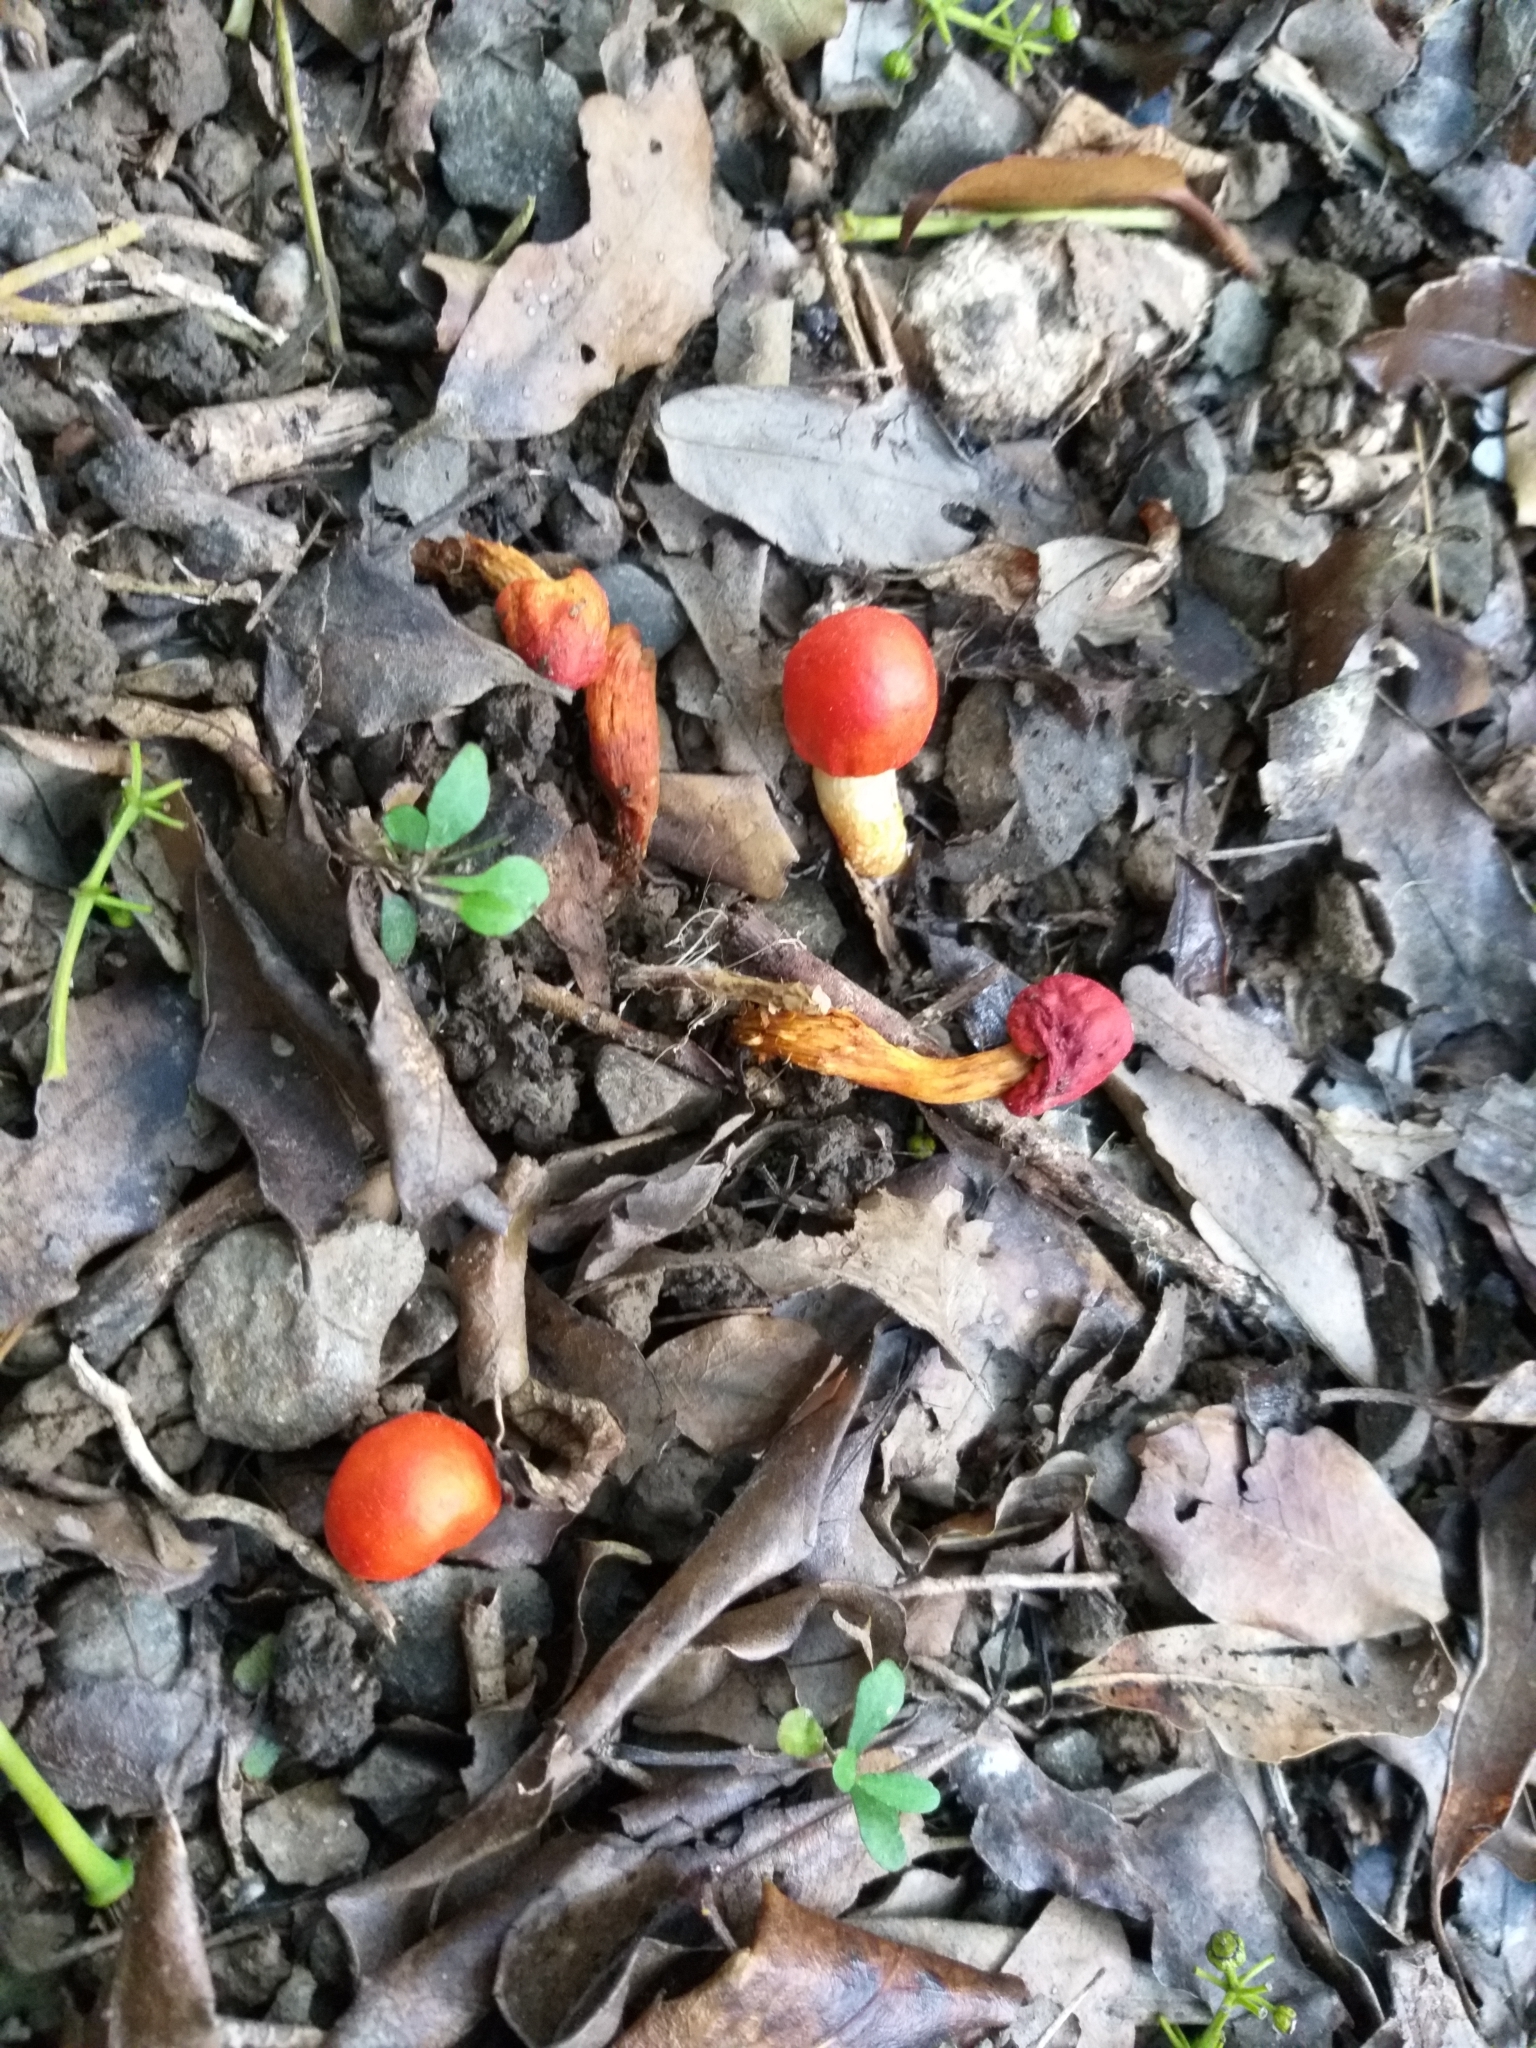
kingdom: Fungi
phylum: Basidiomycota
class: Agaricomycetes
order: Agaricales
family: Strophariaceae
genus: Leratiomyces
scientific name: Leratiomyces erythrocephalus
